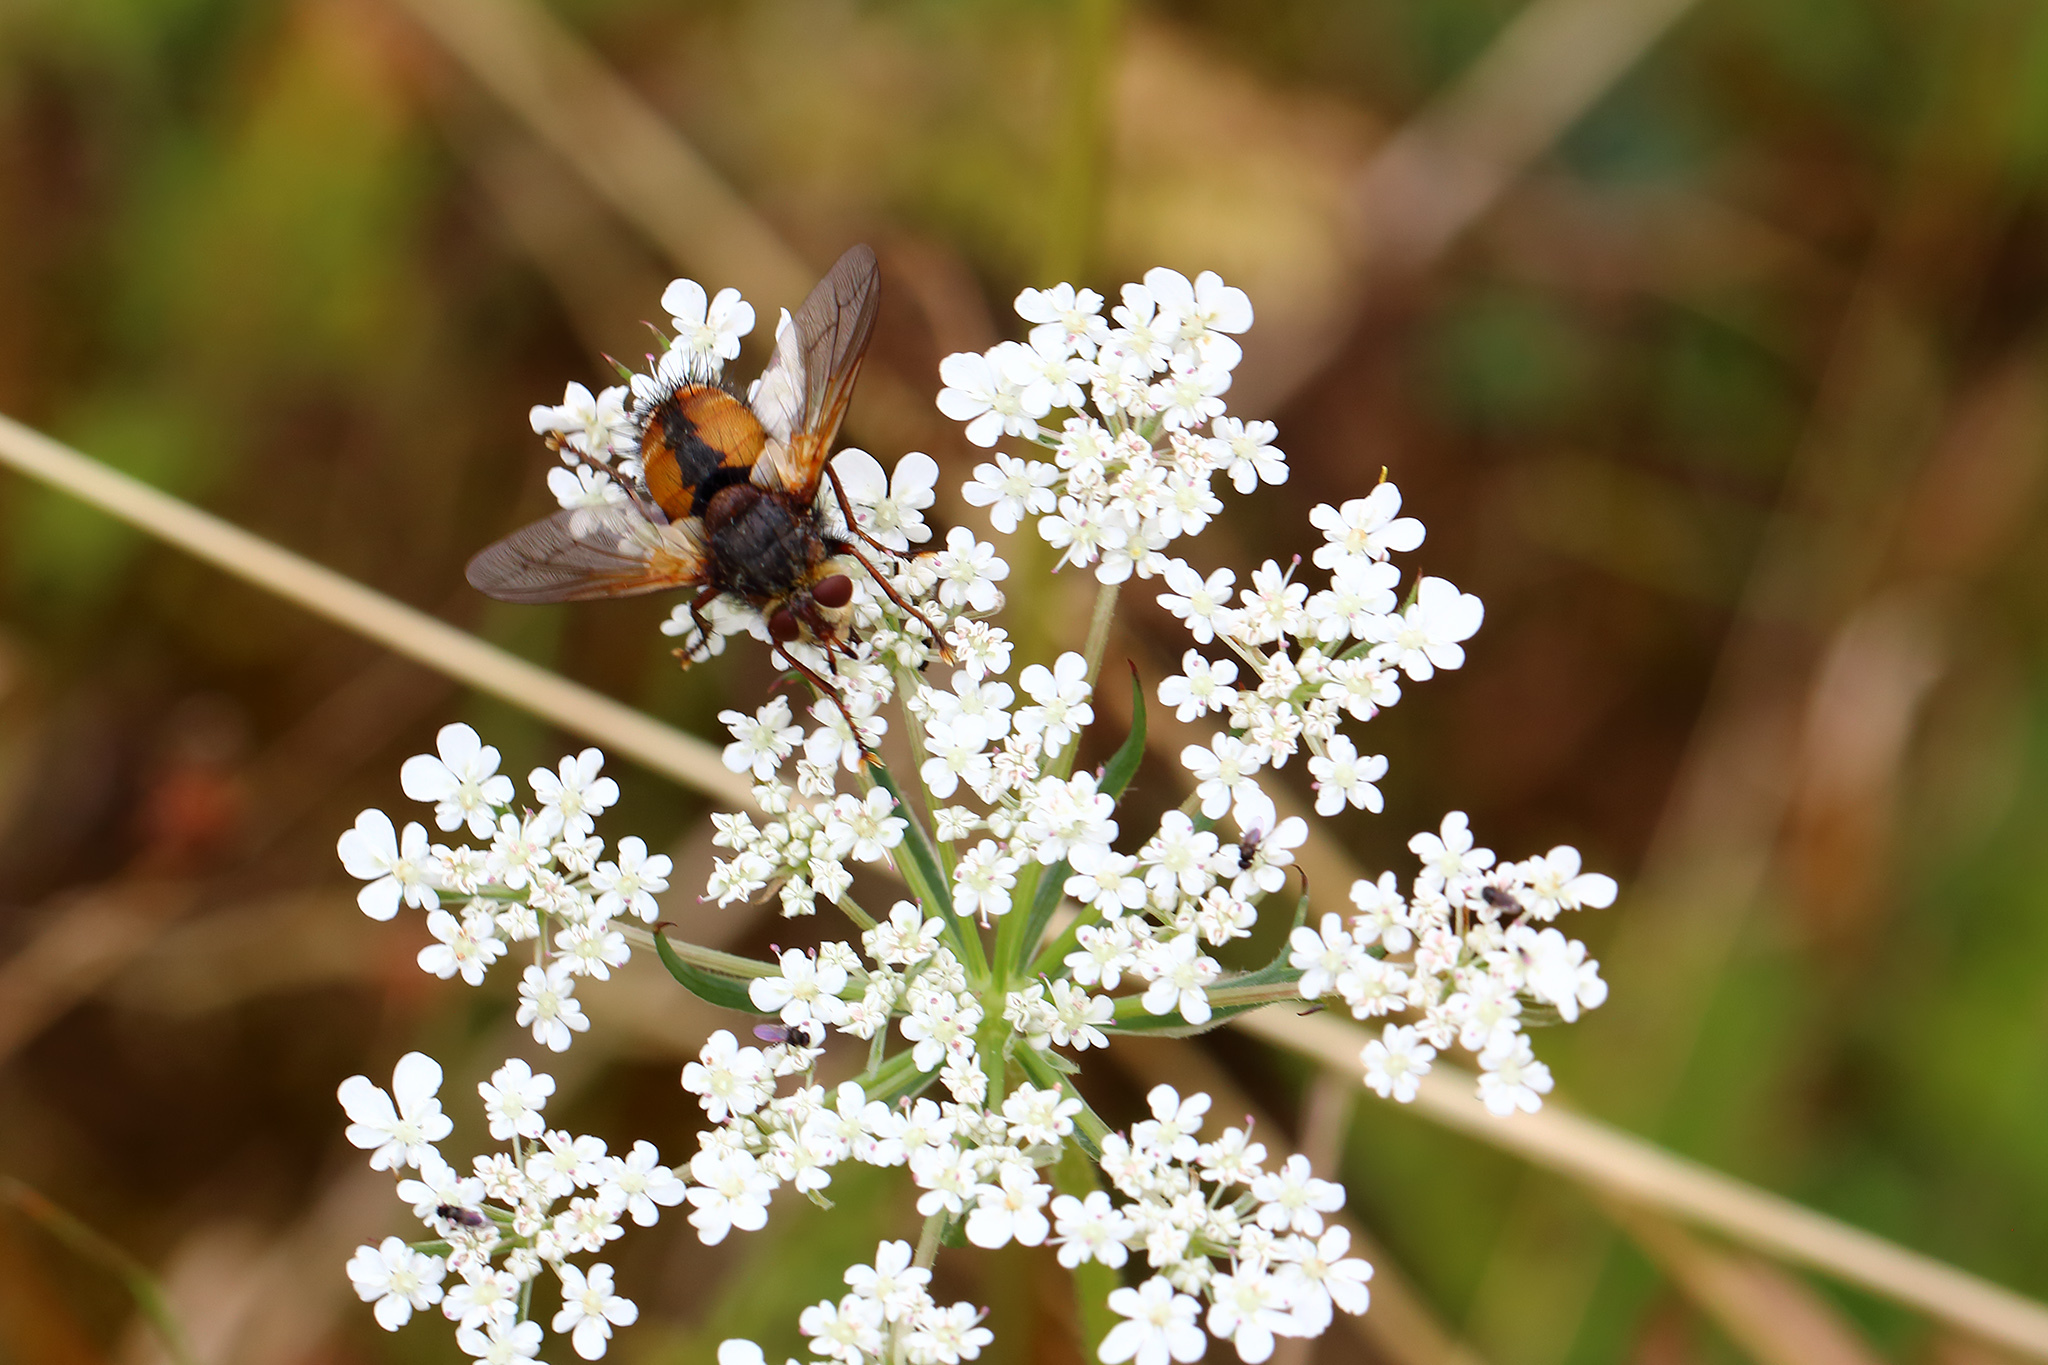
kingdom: Animalia
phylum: Arthropoda
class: Insecta
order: Diptera
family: Tachinidae
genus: Tachina
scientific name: Tachina fera
